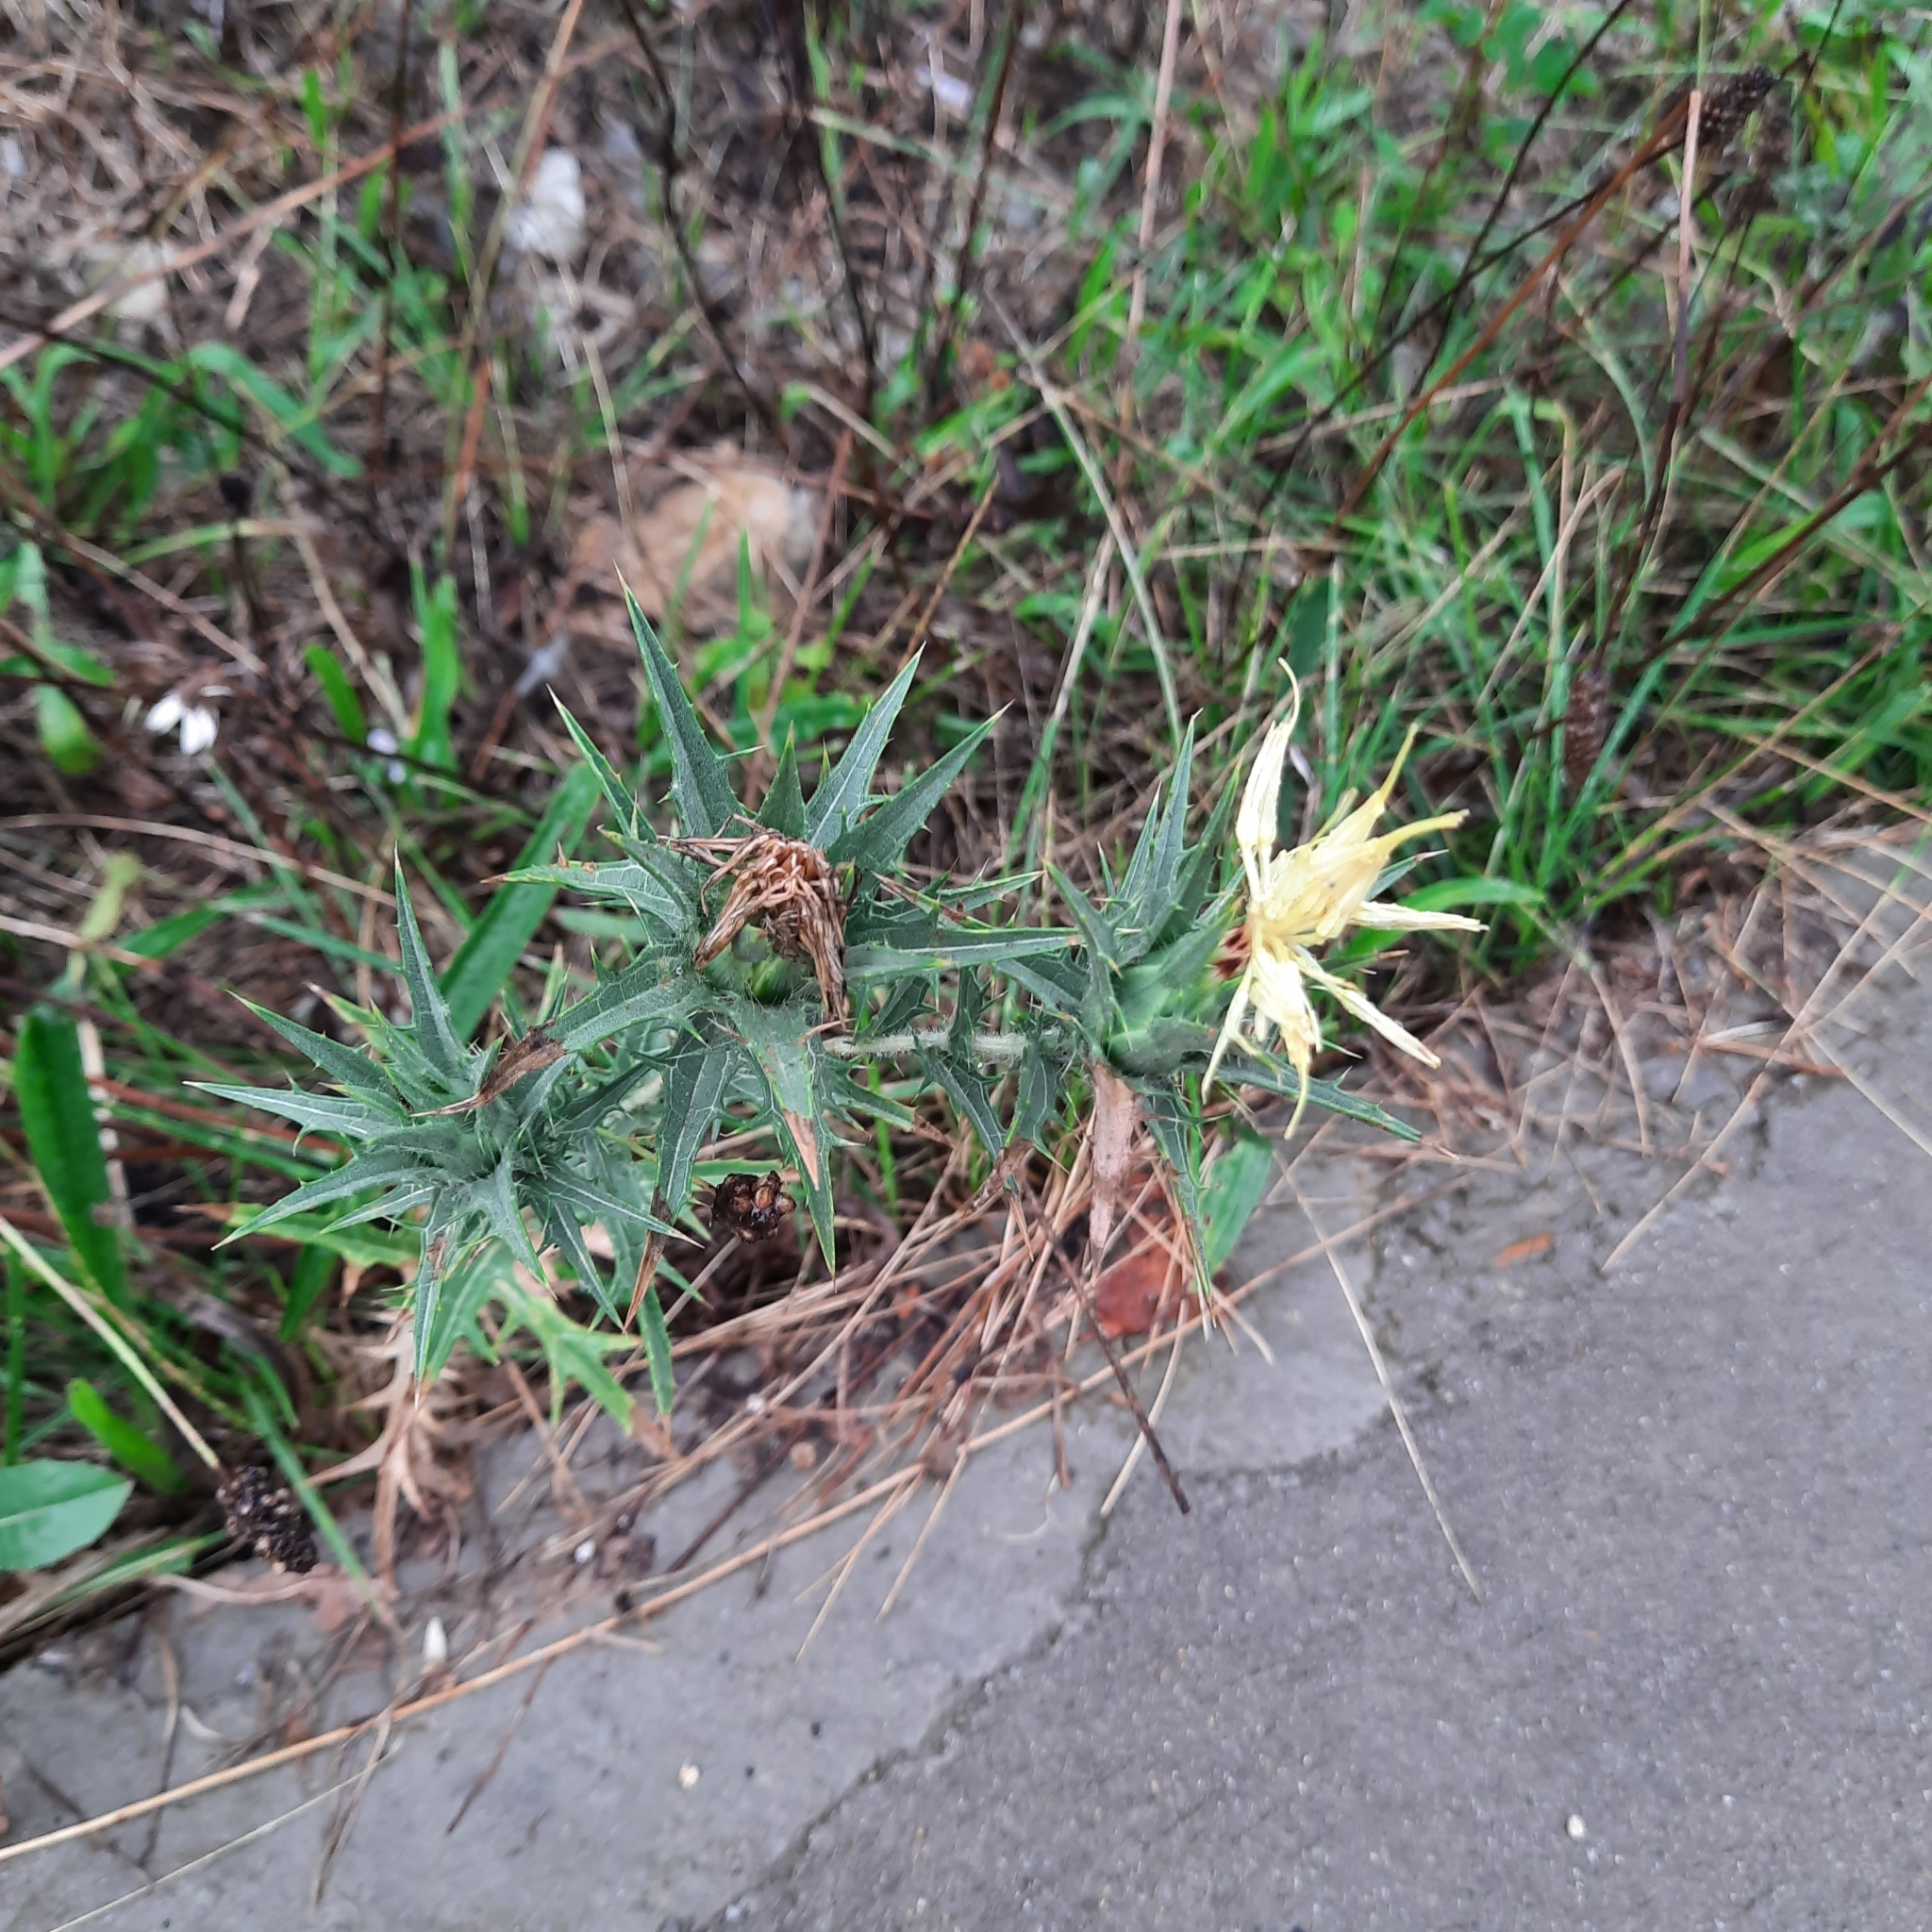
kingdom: Plantae
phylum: Tracheophyta
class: Magnoliopsida
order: Asterales
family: Asteraceae
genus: Carthamus
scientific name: Carthamus lanatus
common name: Downy safflower
